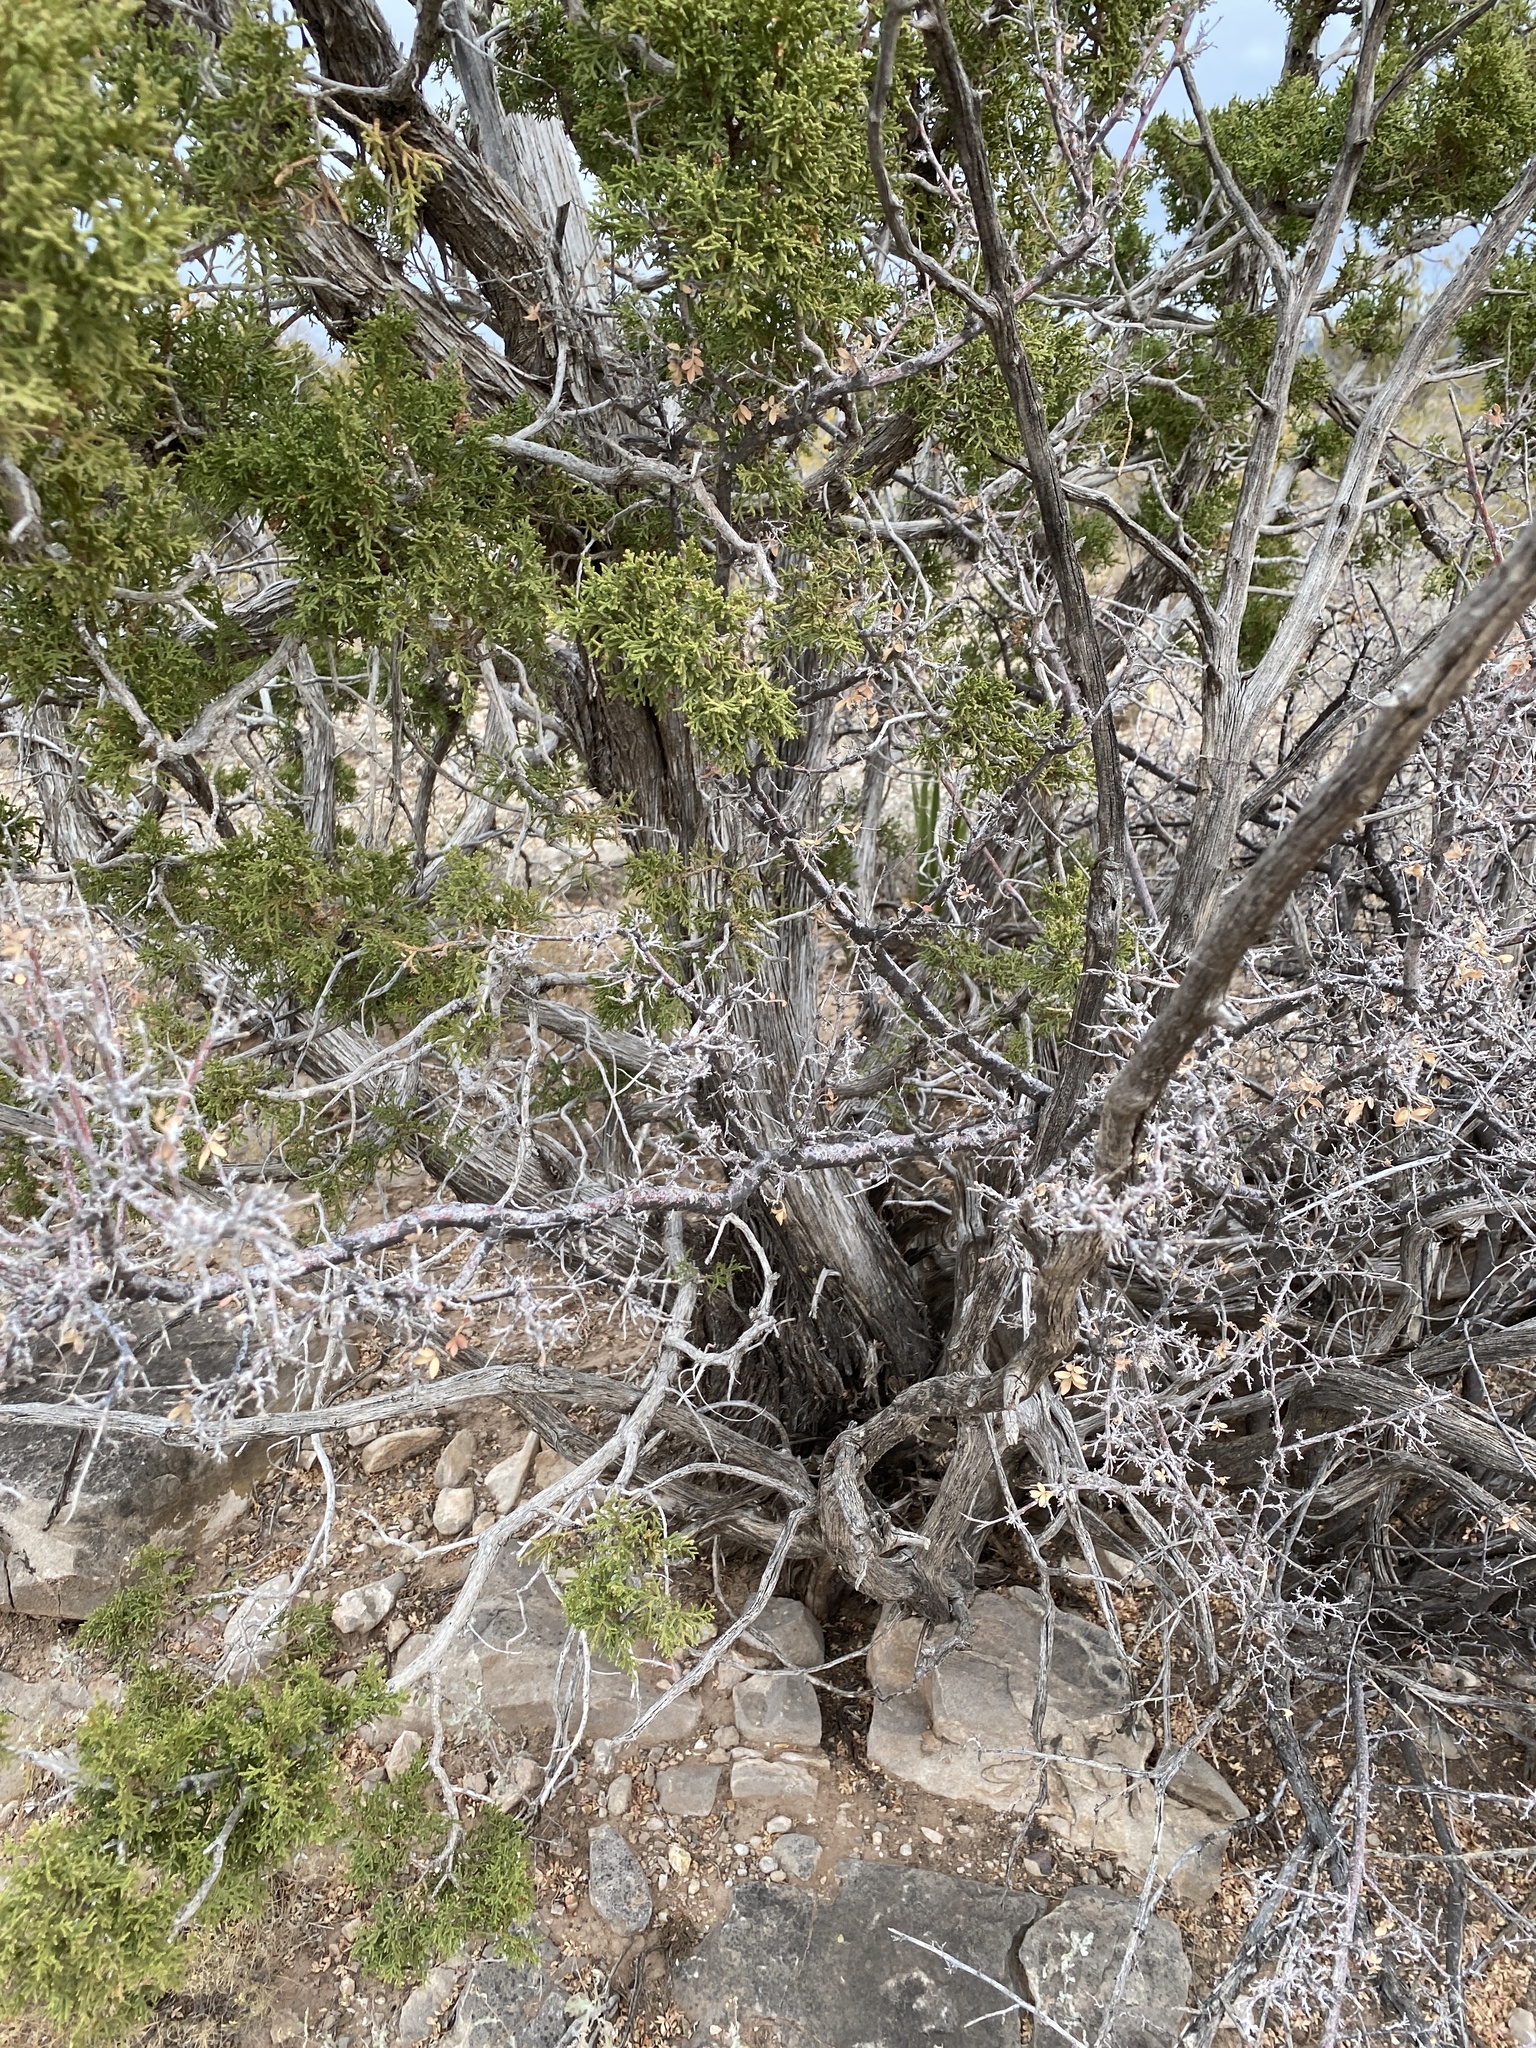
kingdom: Plantae
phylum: Tracheophyta
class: Pinopsida
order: Pinales
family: Cupressaceae
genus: Juniperus
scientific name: Juniperus monosperma
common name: One-seed juniper
